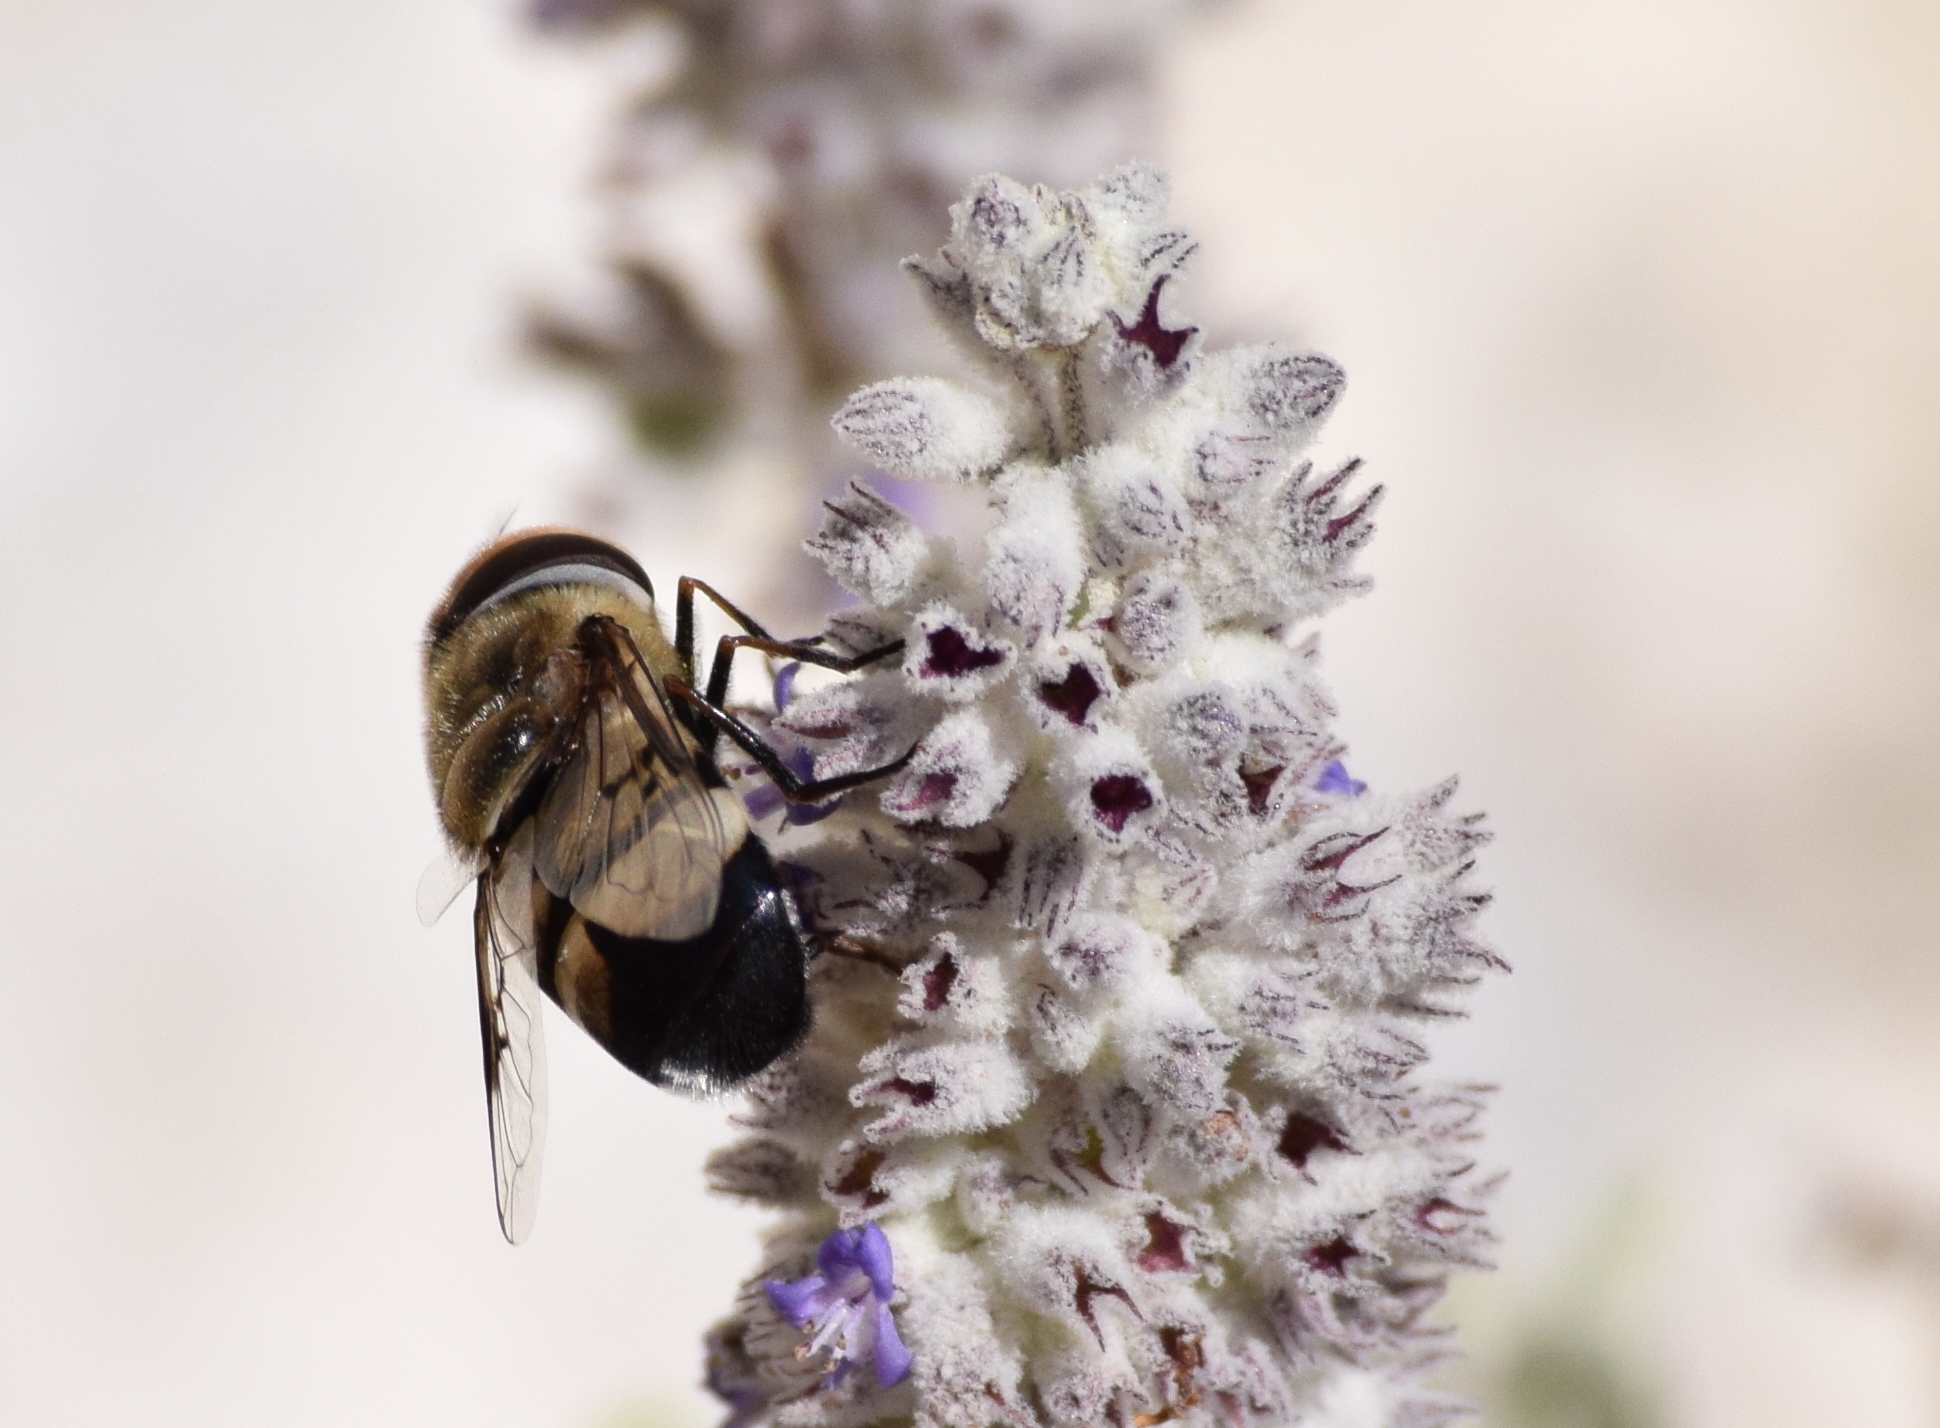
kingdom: Animalia
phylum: Arthropoda
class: Insecta
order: Diptera
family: Syrphidae
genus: Copestylum
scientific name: Copestylum apiciferum
